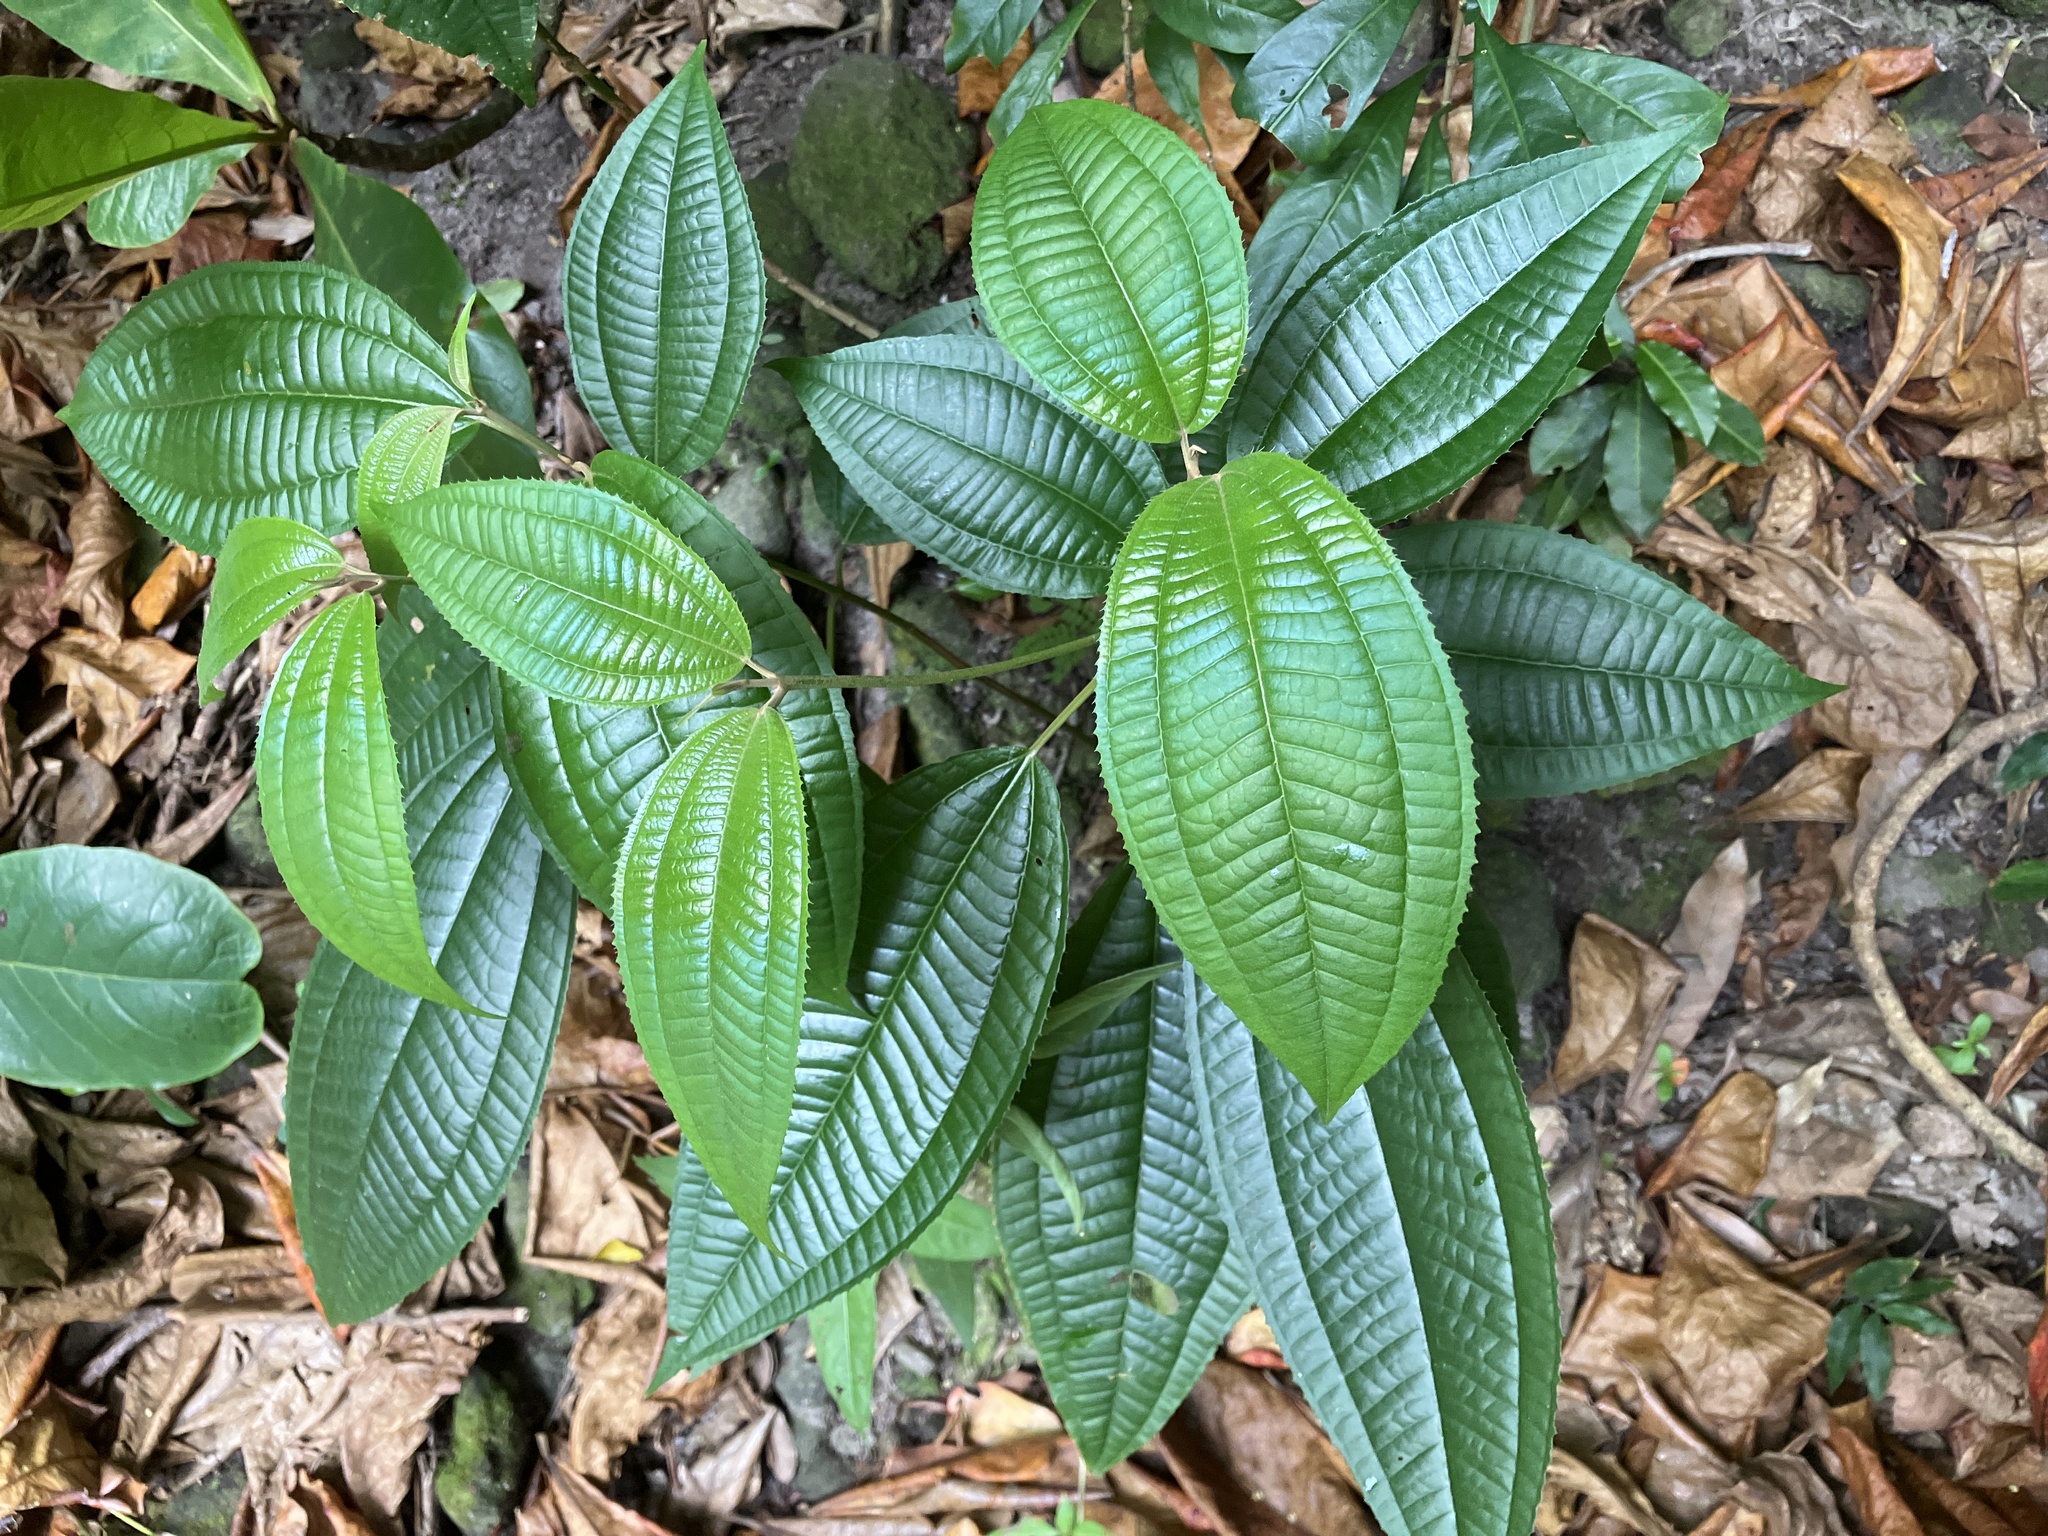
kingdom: Plantae
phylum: Tracheophyta
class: Magnoliopsida
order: Myrtales
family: Melastomataceae
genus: Miconia
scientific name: Miconia laevigata
